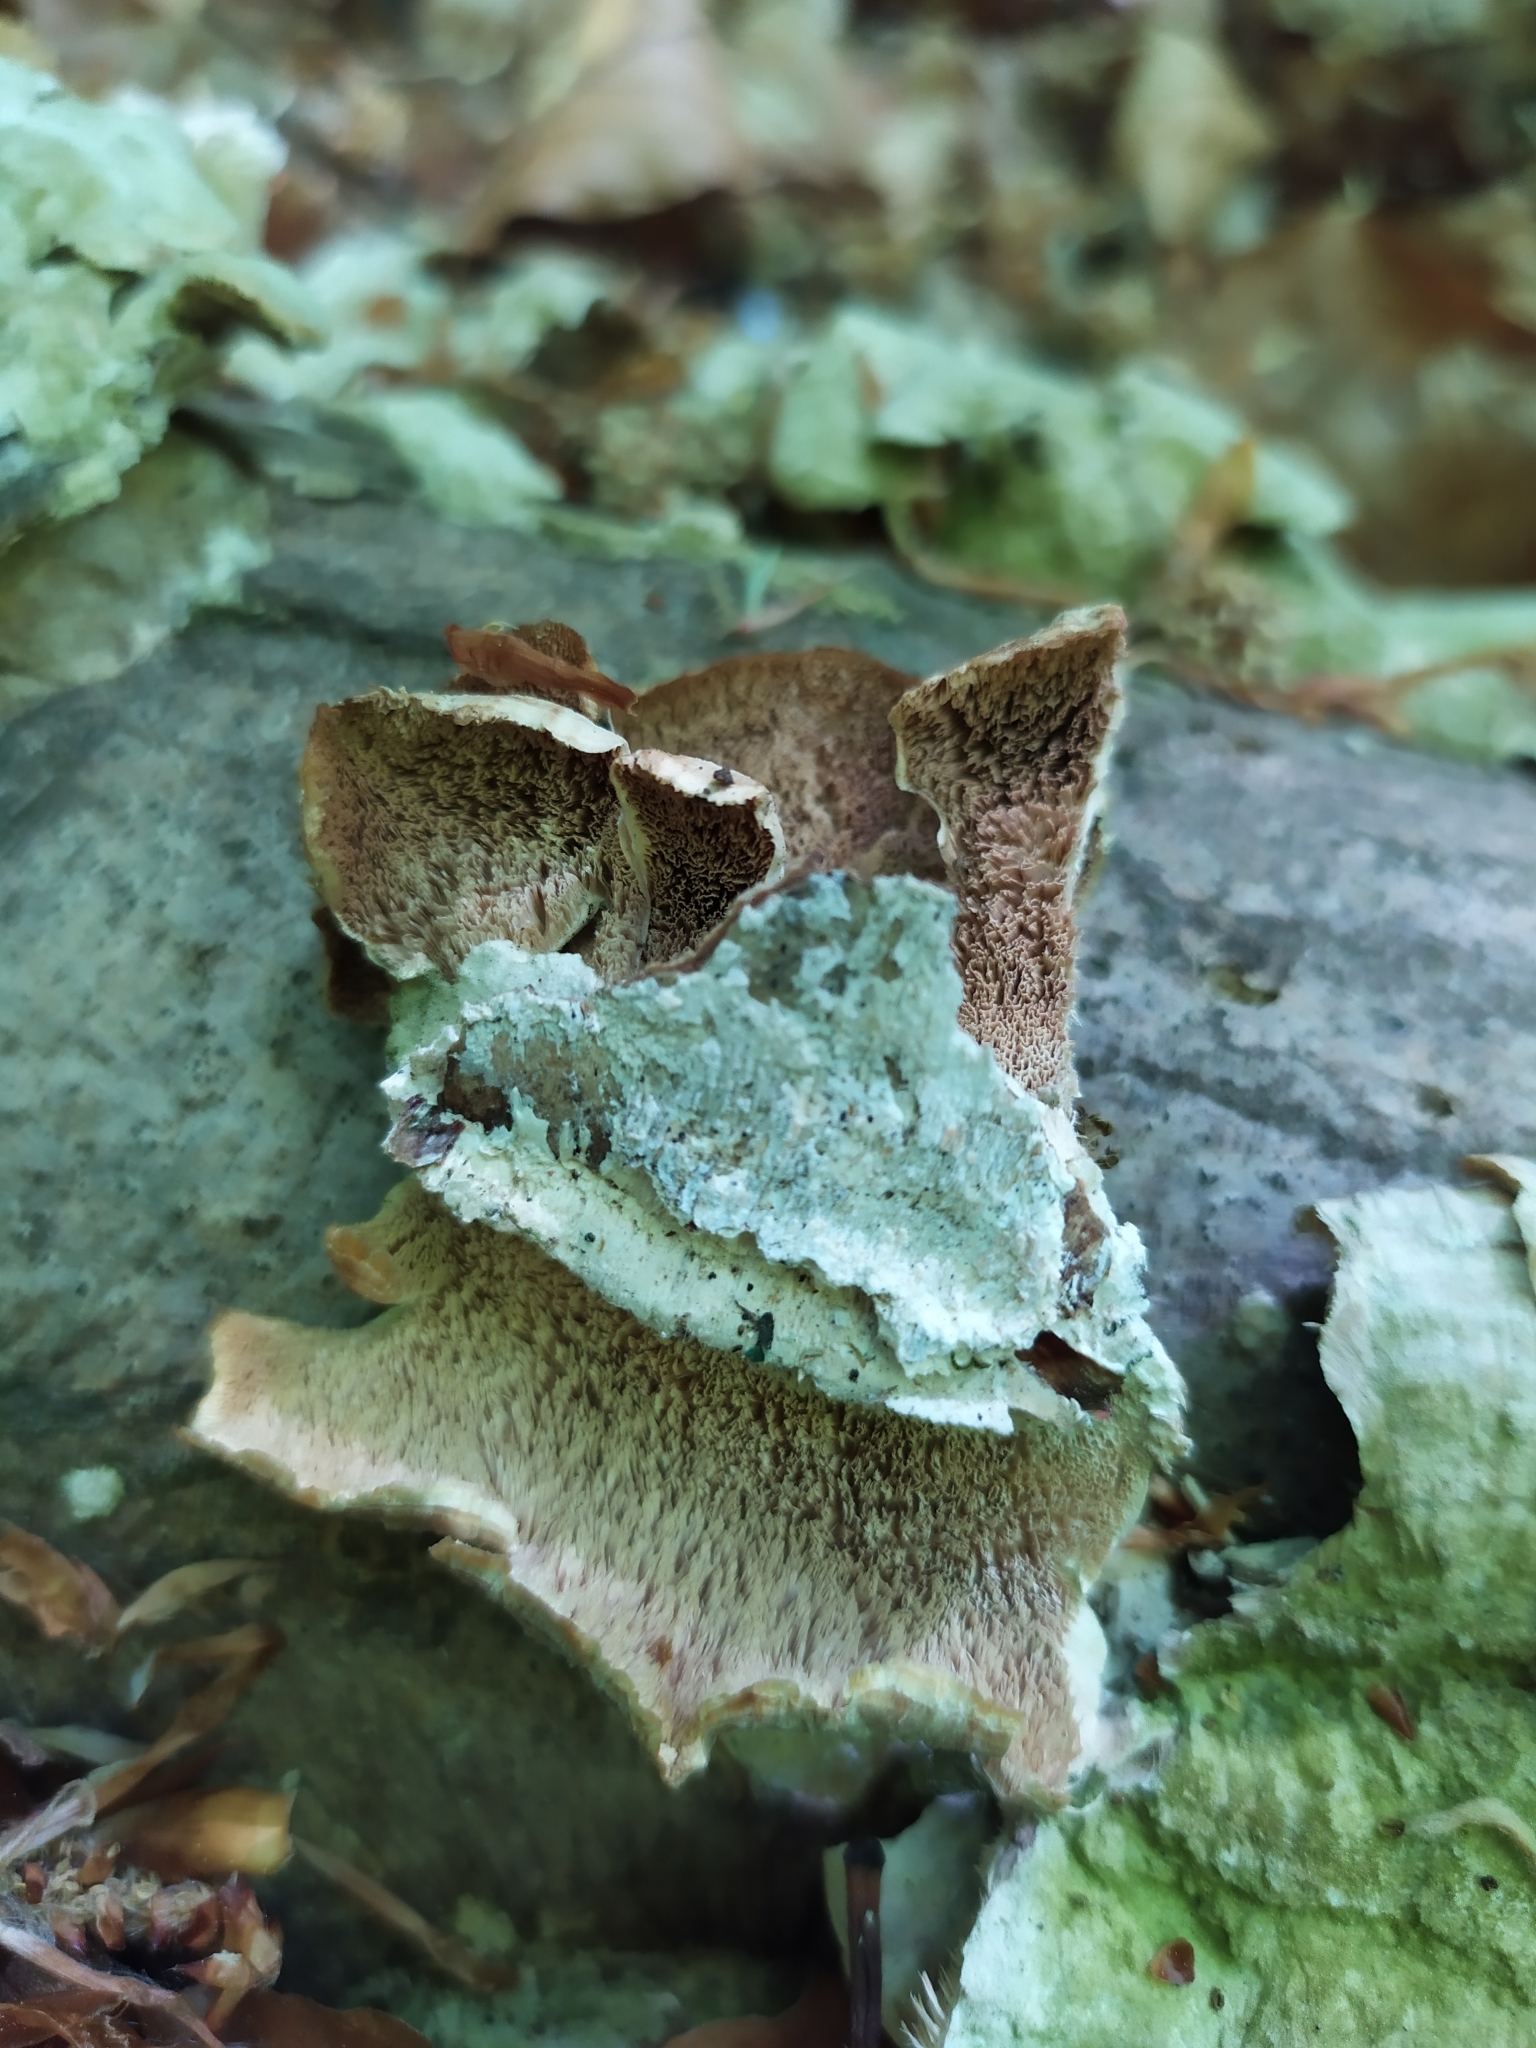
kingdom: Fungi
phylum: Basidiomycota
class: Agaricomycetes
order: Polyporales
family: Cerrenaceae
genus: Cerrena
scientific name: Cerrena unicolor
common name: Mossy maze polypore
